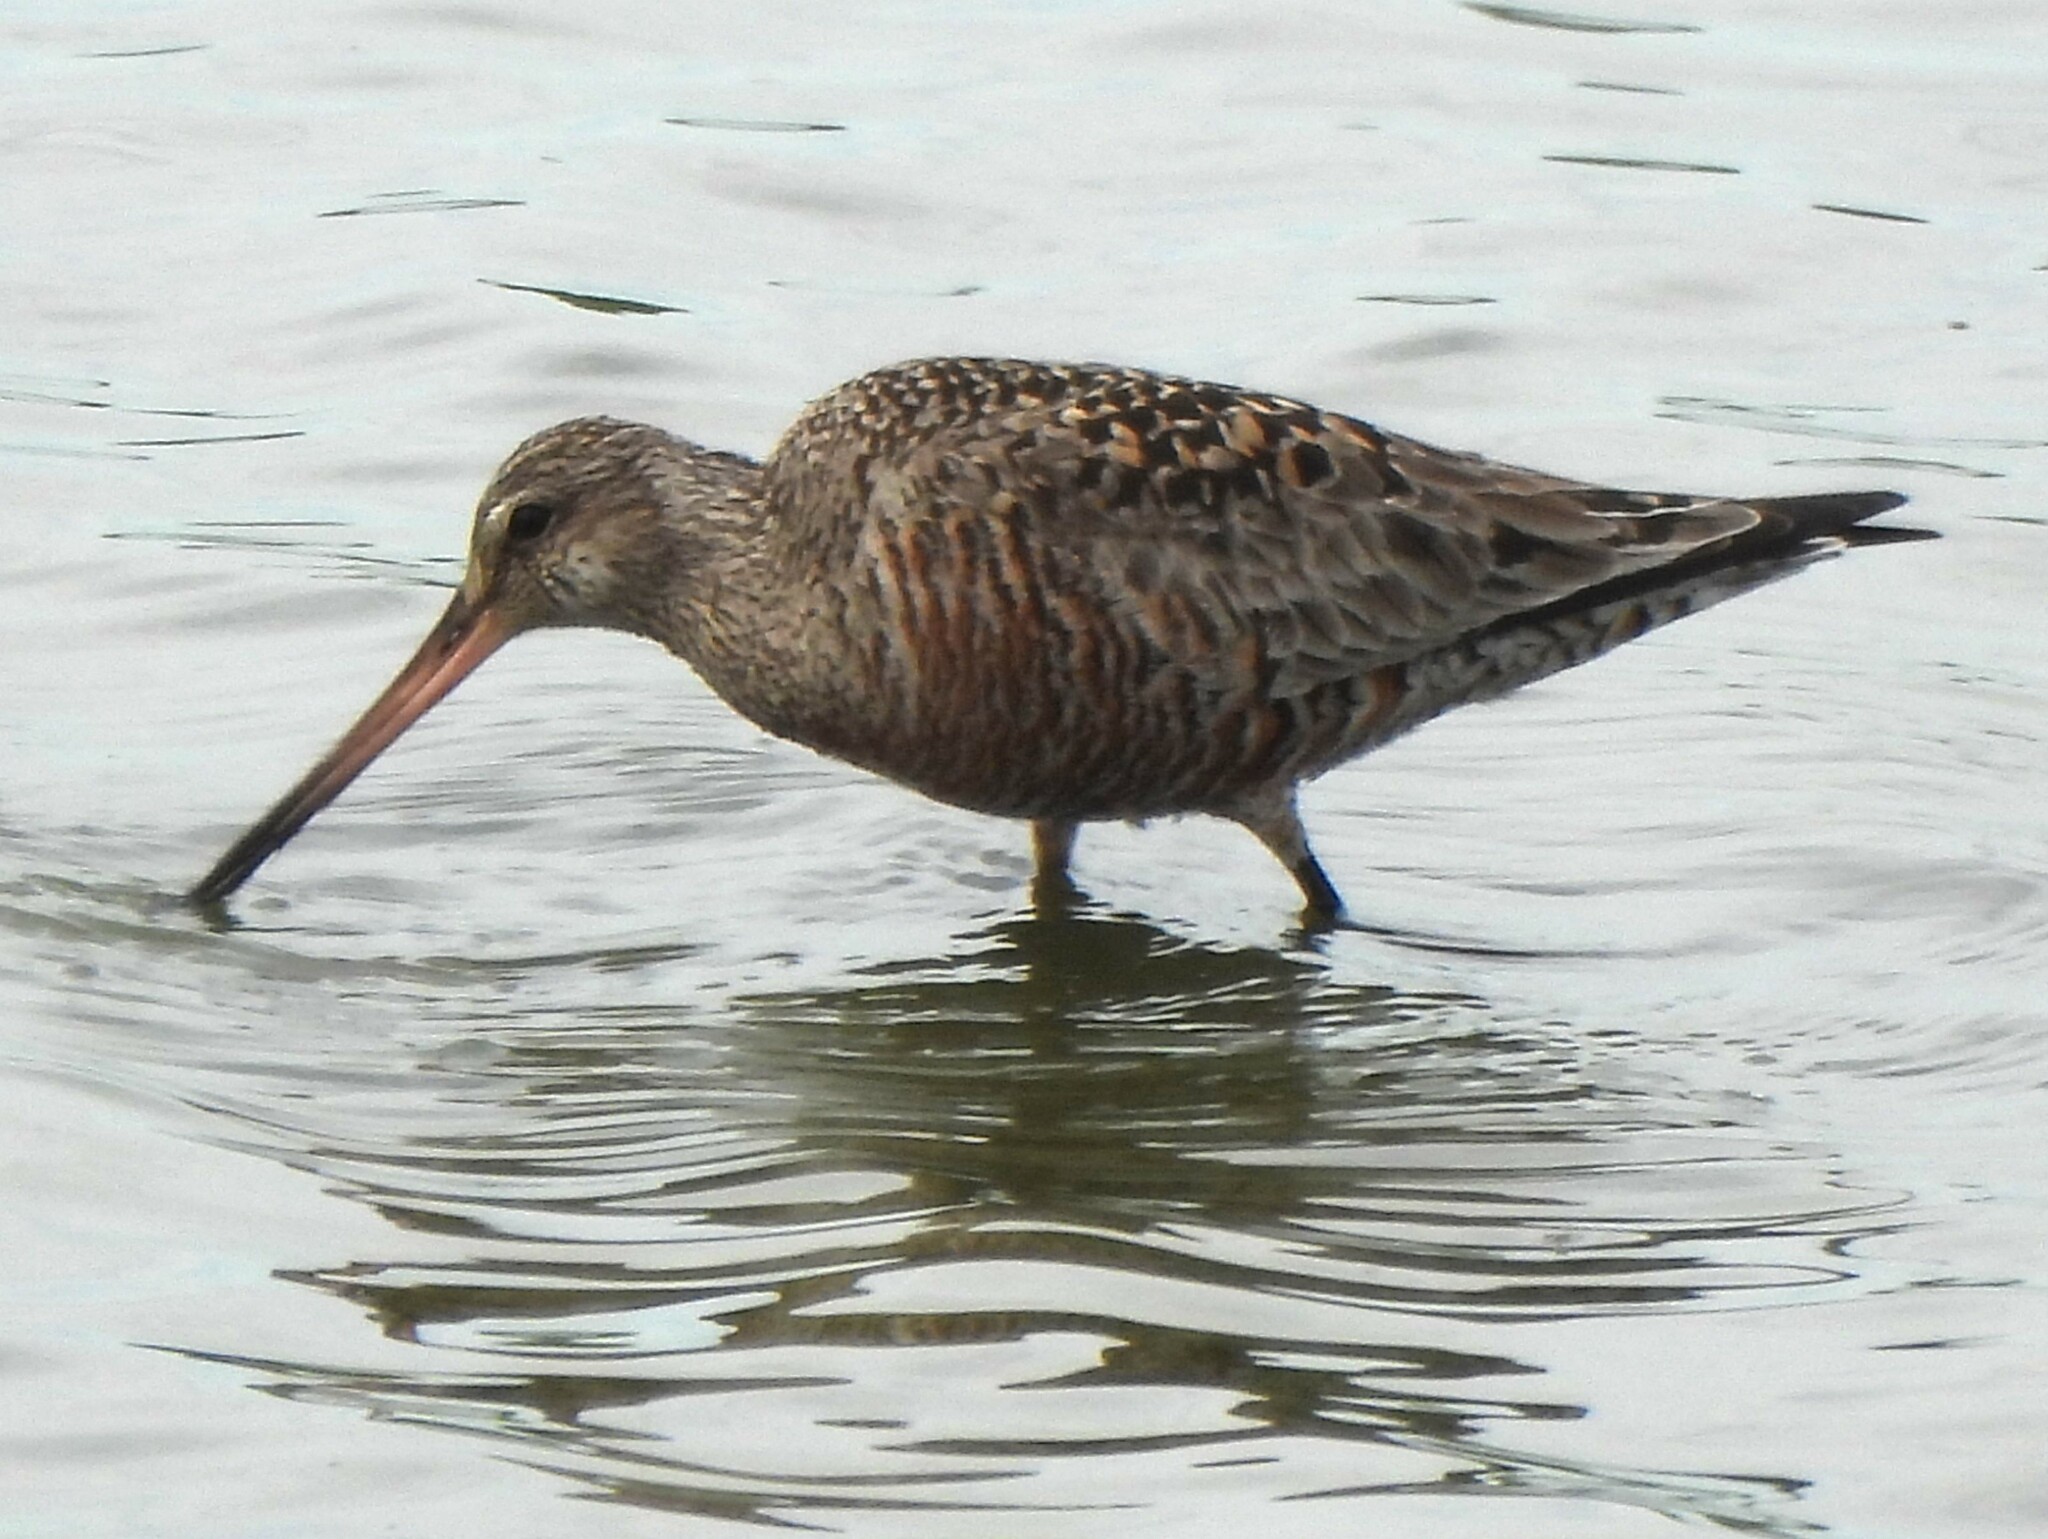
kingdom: Animalia
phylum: Chordata
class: Aves
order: Charadriiformes
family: Scolopacidae
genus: Limosa
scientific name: Limosa haemastica
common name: Hudsonian godwit
